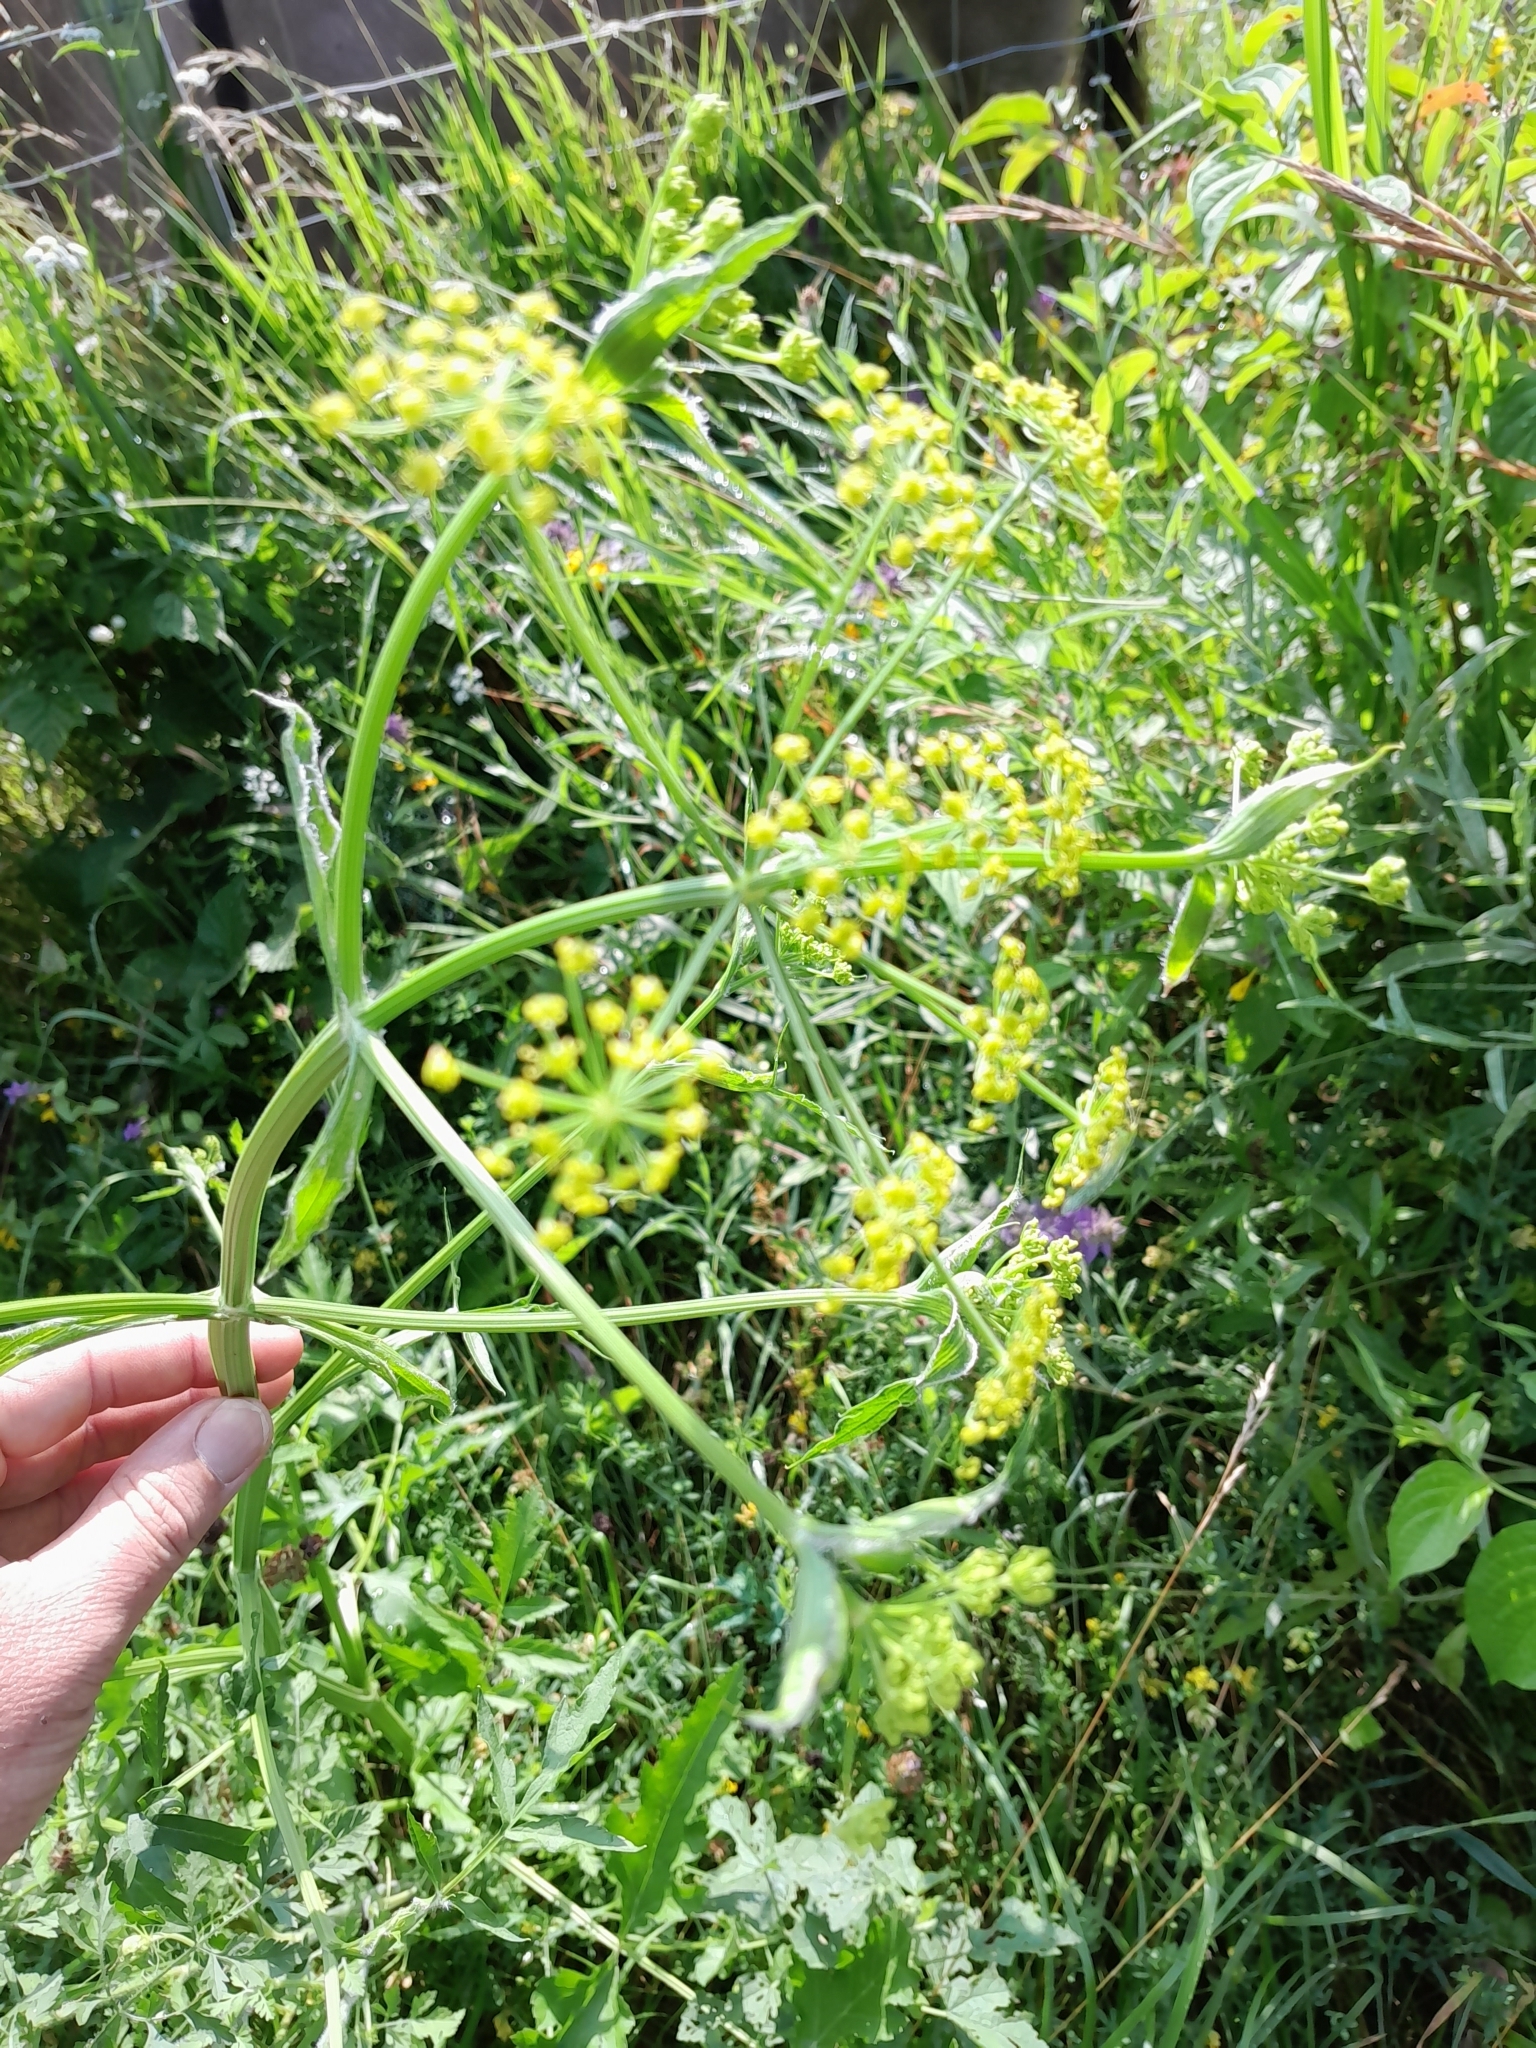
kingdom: Plantae
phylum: Tracheophyta
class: Magnoliopsida
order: Apiales
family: Apiaceae
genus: Pastinaca
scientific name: Pastinaca sativa
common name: Wild parsnip
